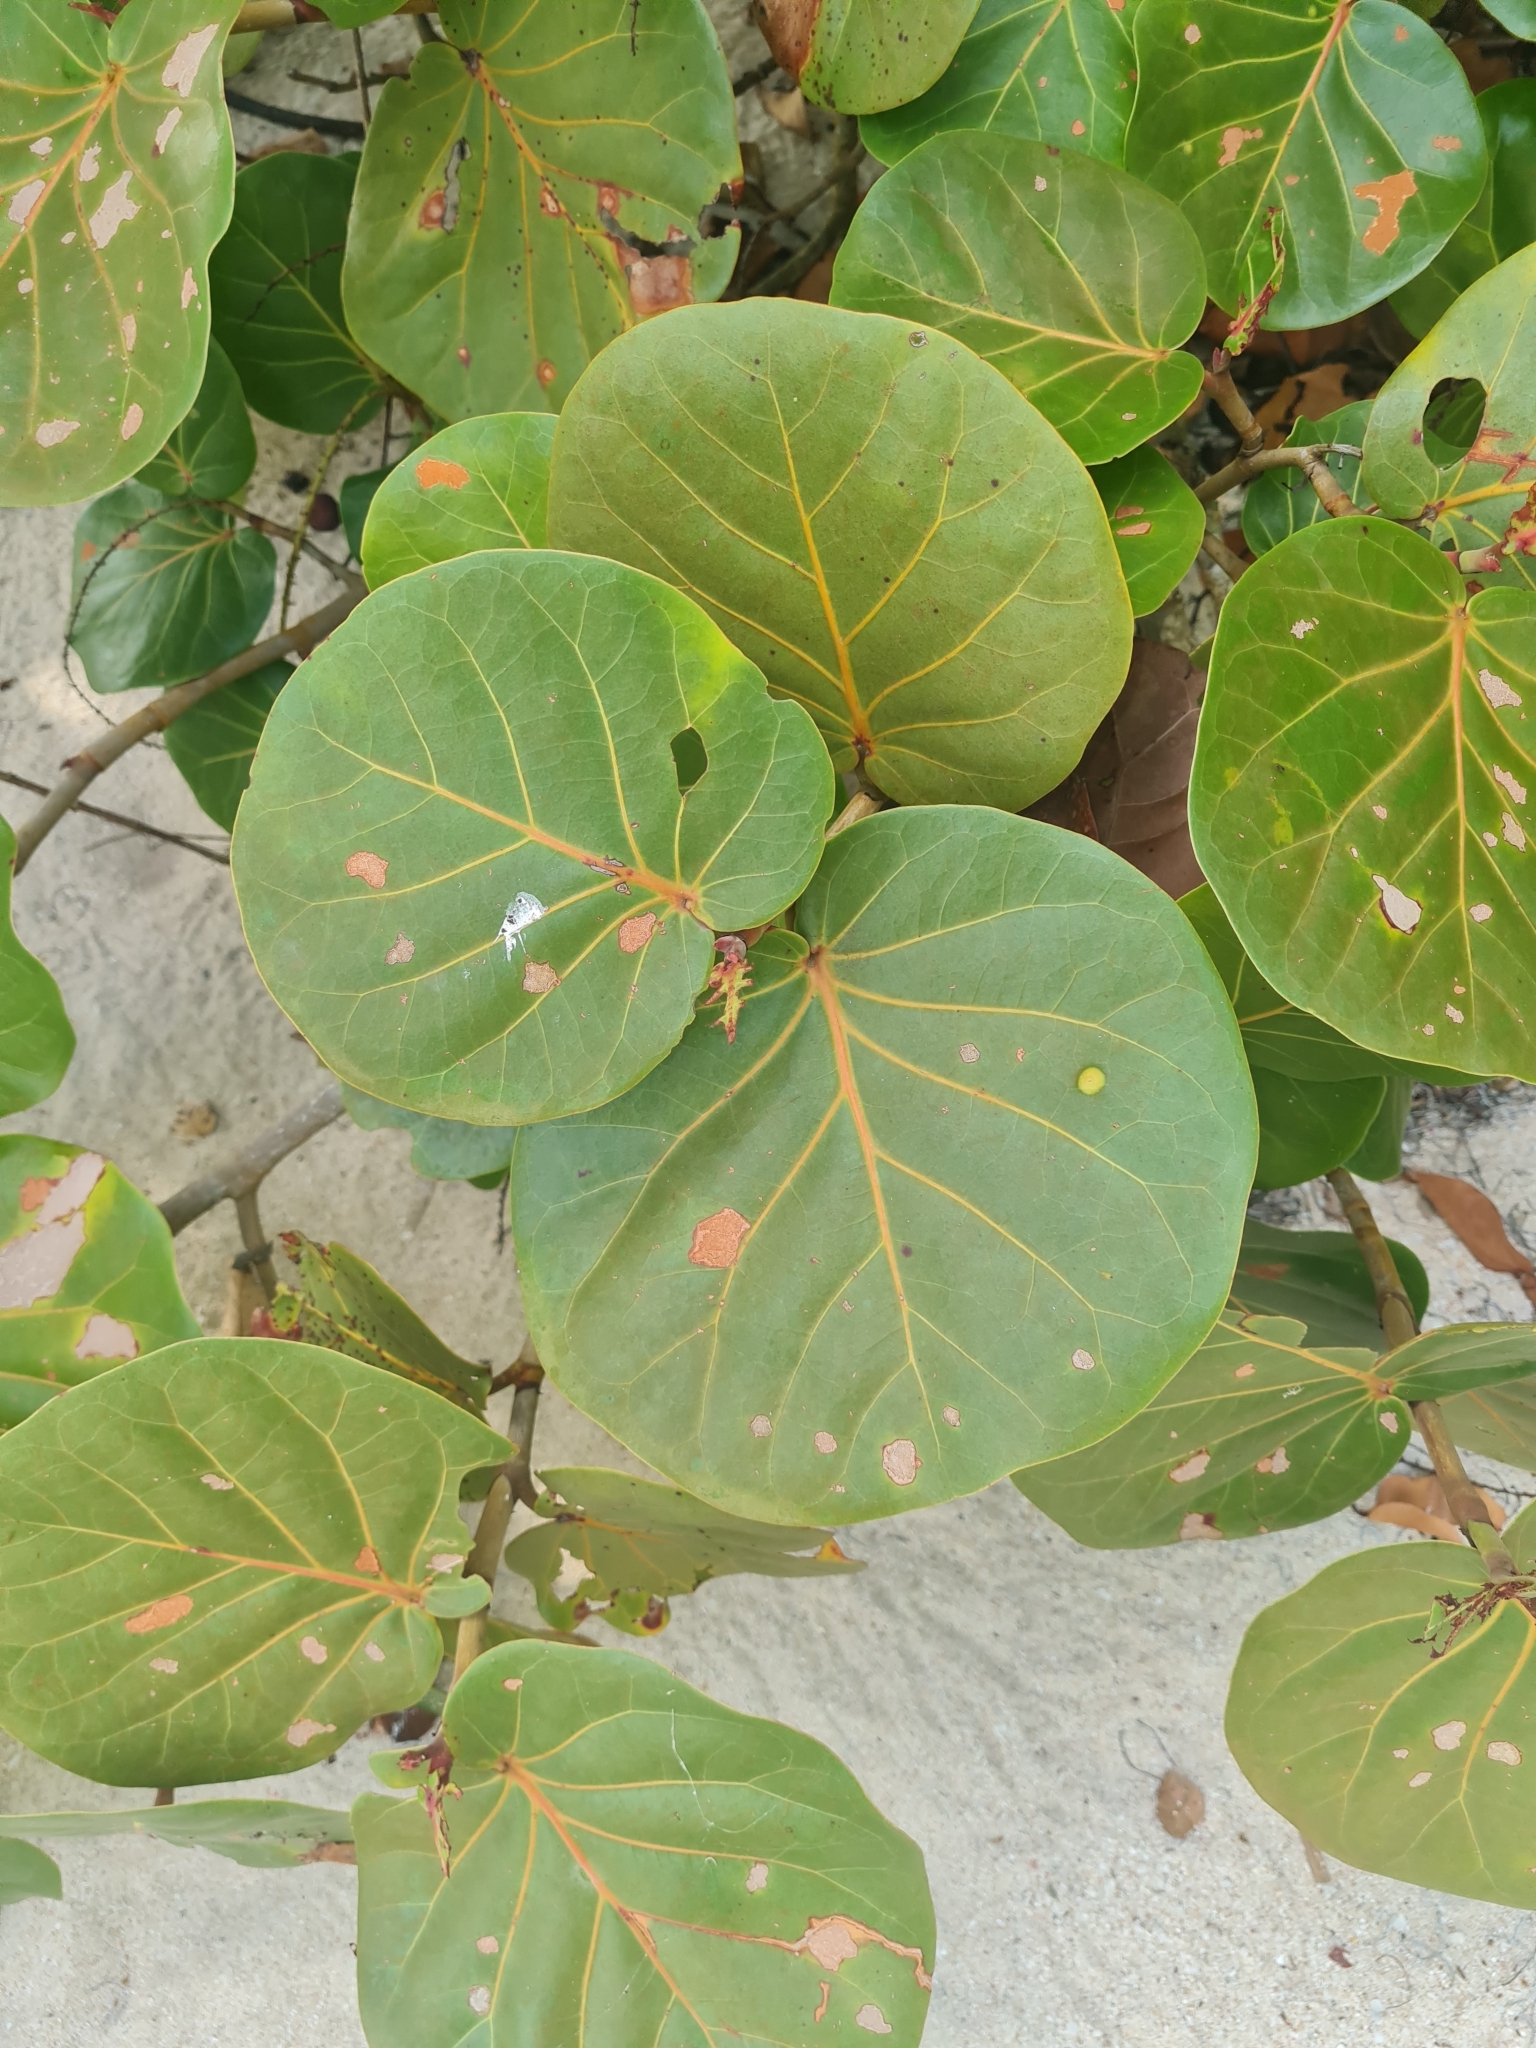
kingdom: Plantae
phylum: Tracheophyta
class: Magnoliopsida
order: Caryophyllales
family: Polygonaceae
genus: Coccoloba
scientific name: Coccoloba uvifera
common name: Seagrape
